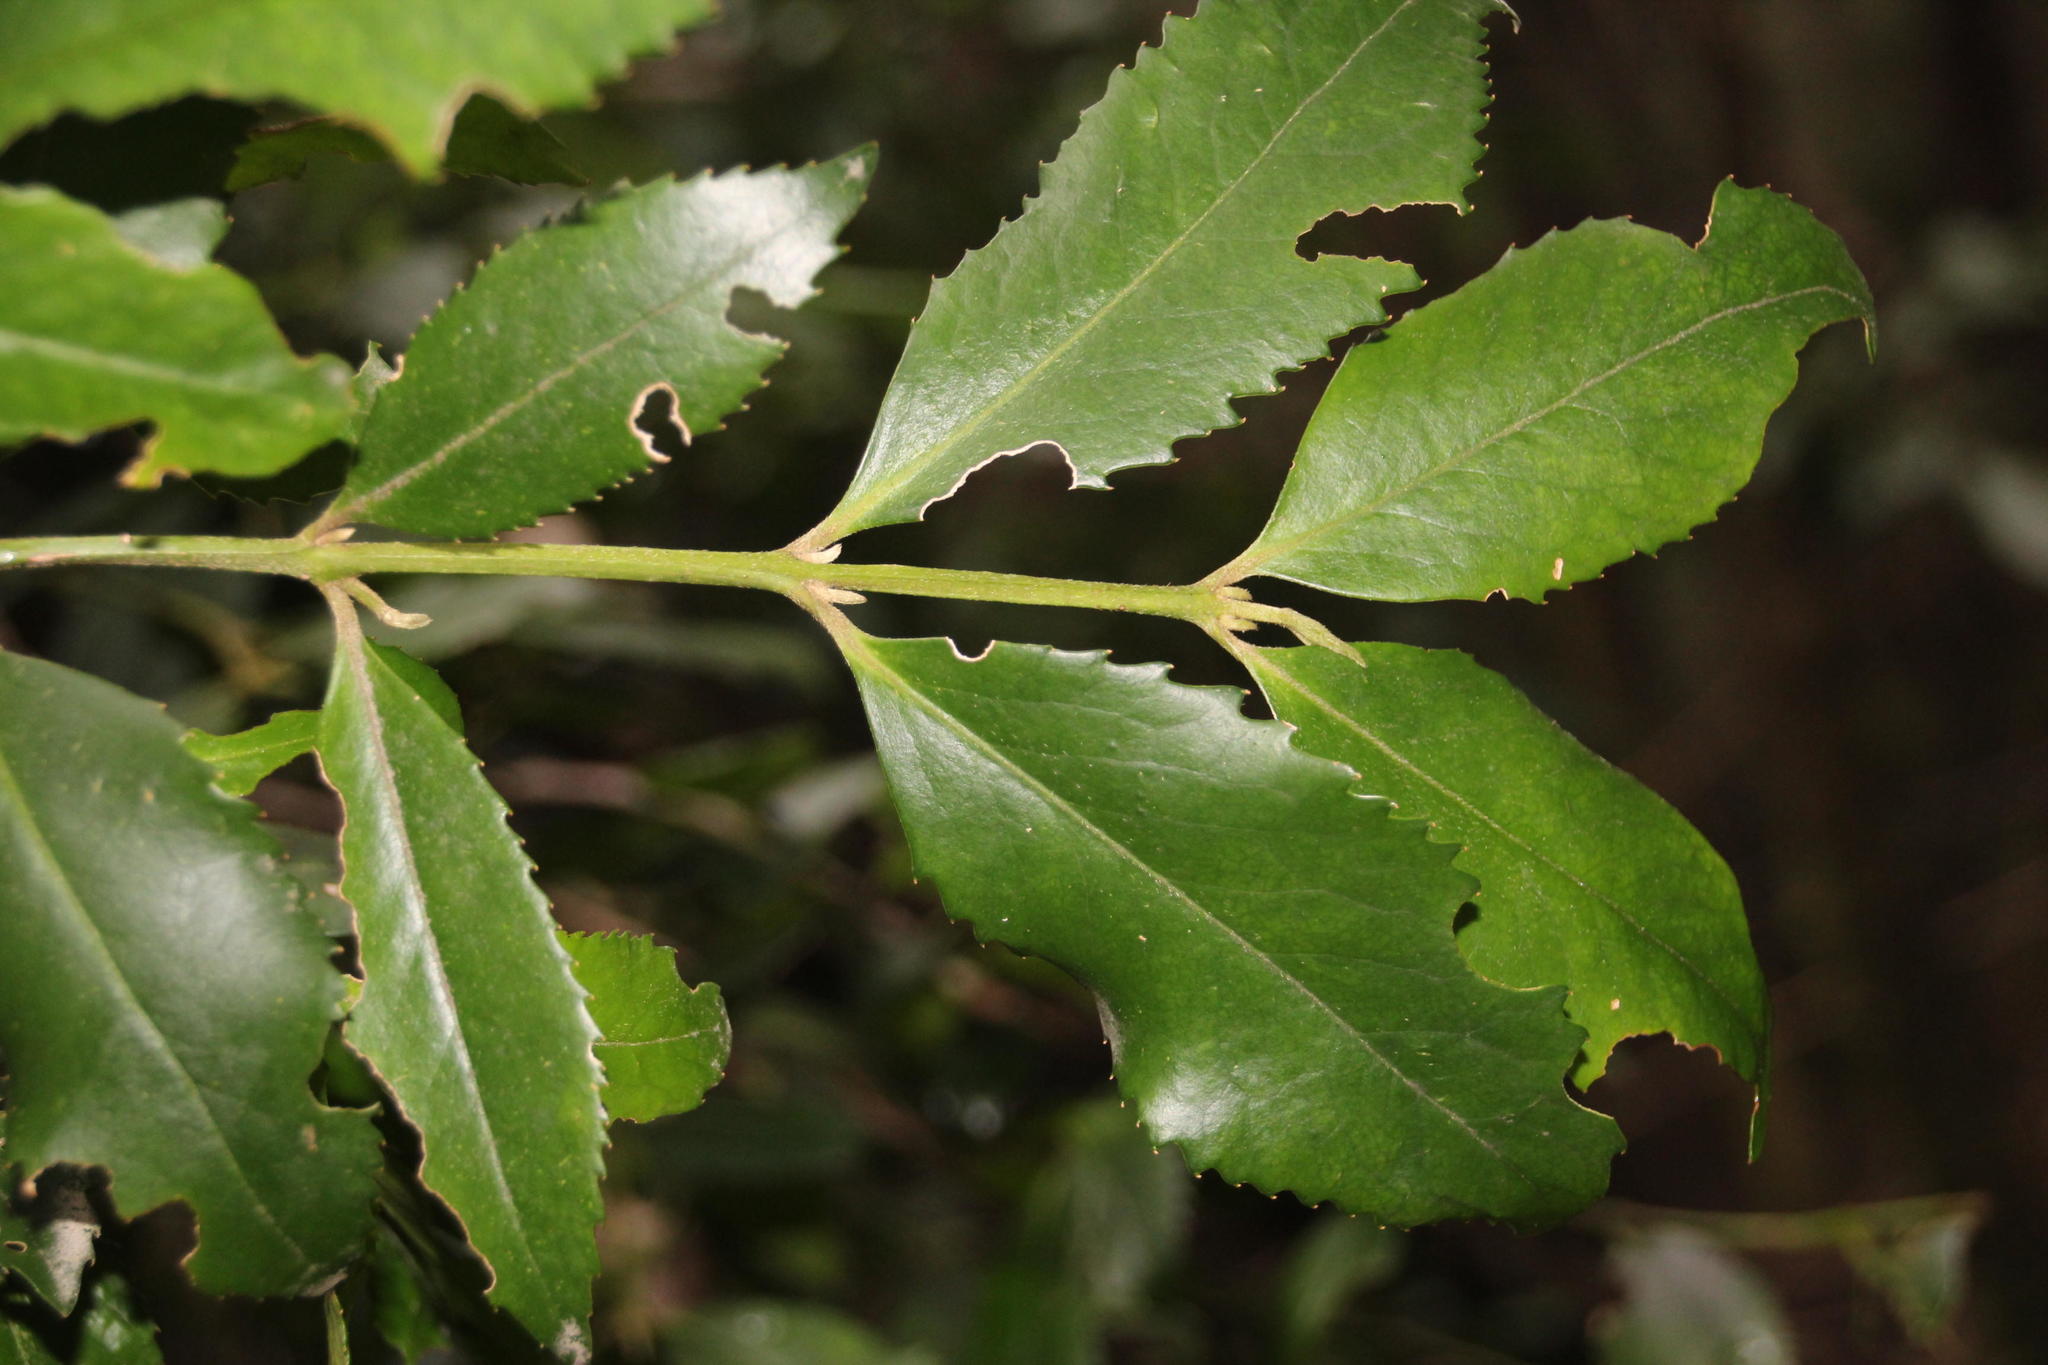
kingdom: Plantae
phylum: Tracheophyta
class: Magnoliopsida
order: Laurales
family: Atherospermataceae
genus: Laureliopsis
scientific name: Laureliopsis philippiana
